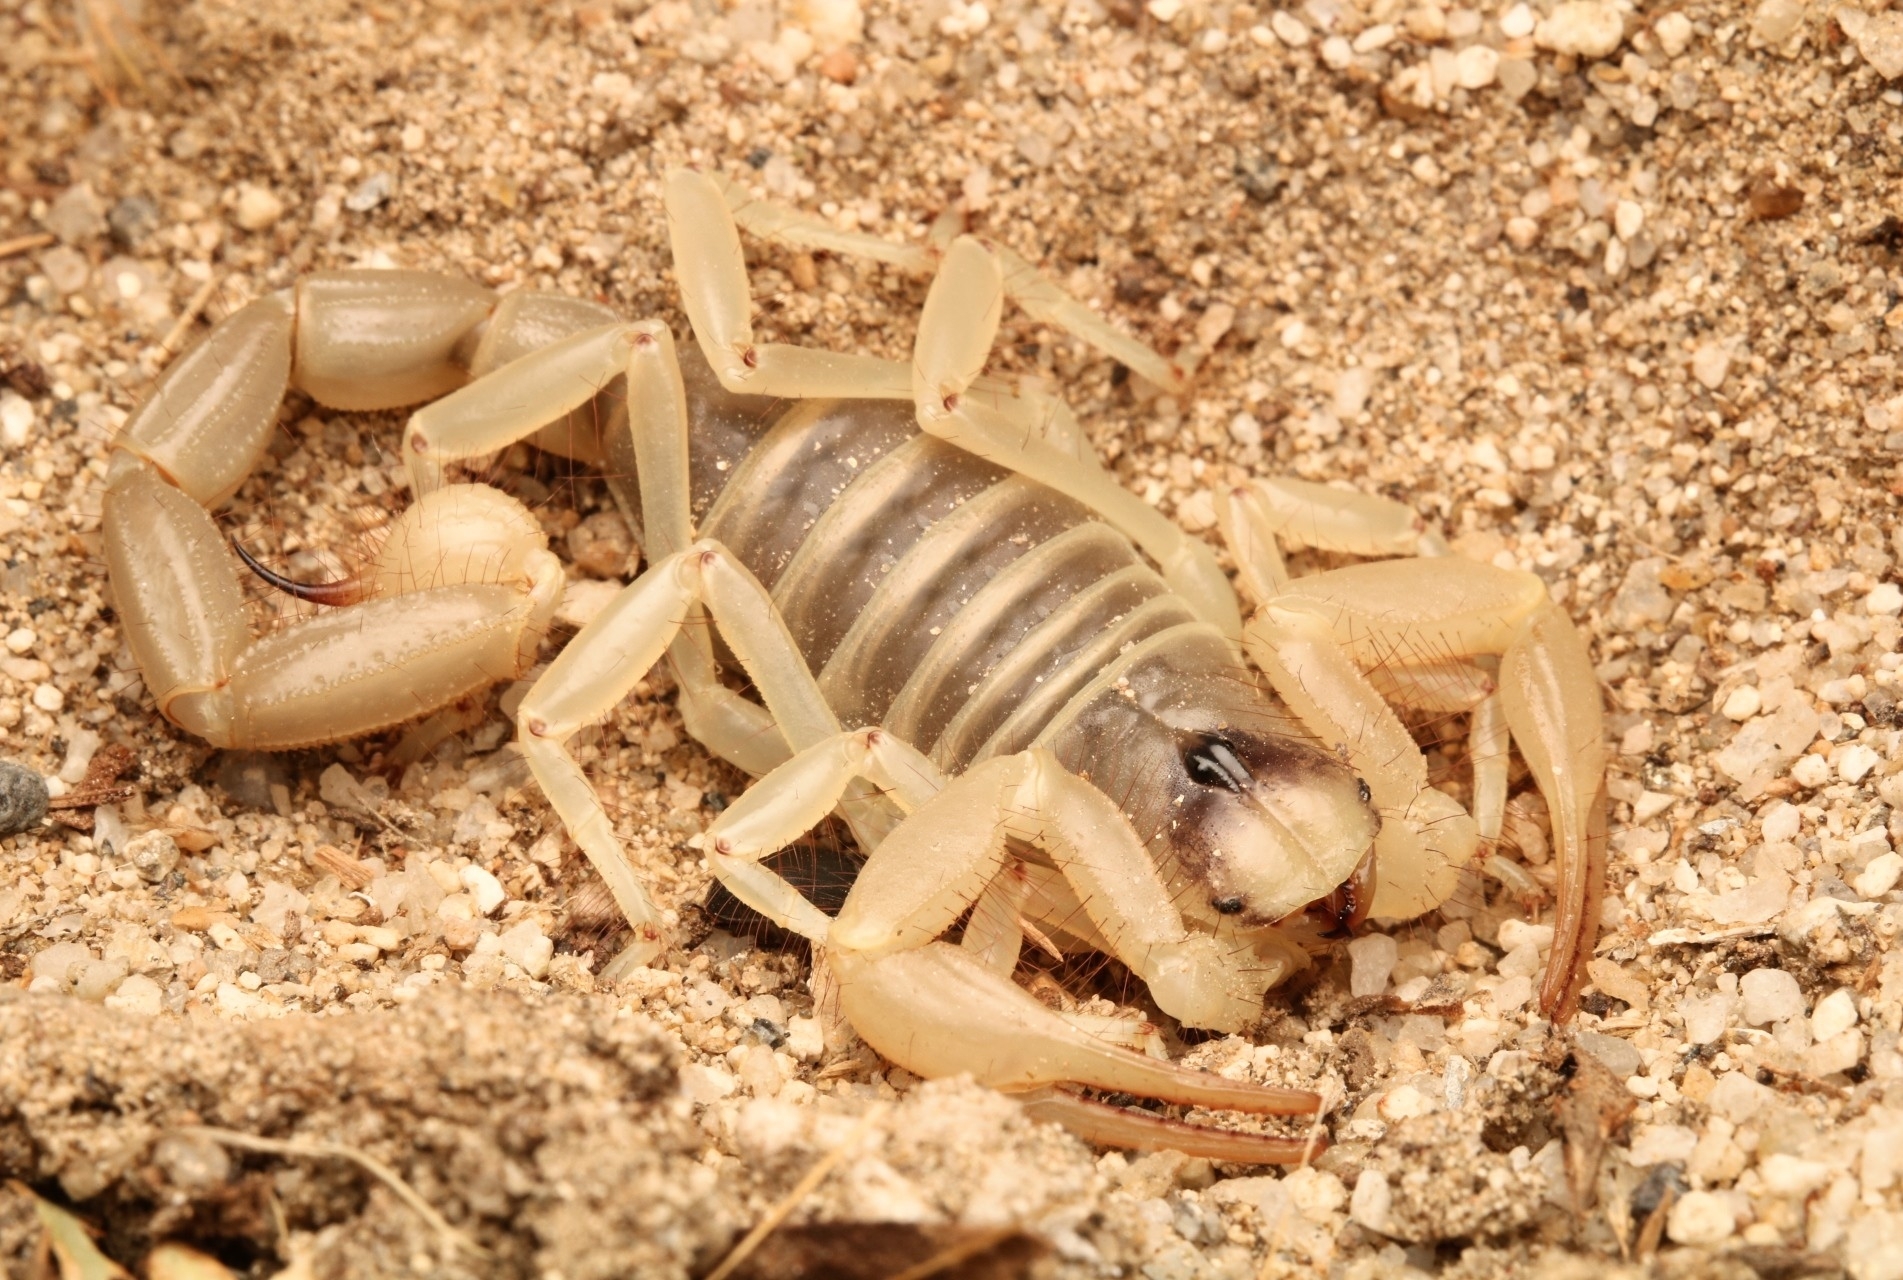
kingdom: Animalia
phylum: Arthropoda
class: Arachnida
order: Scorpiones
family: Hadruridae
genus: Hadrurus
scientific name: Hadrurus arizonensis
